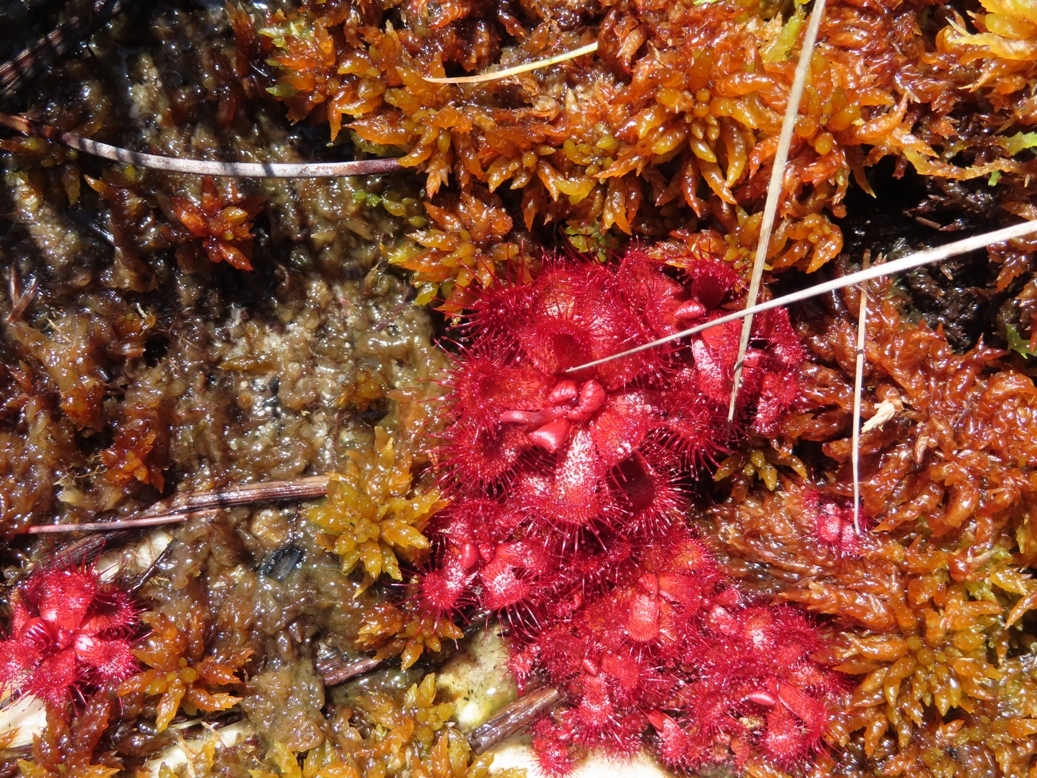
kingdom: Plantae
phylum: Tracheophyta
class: Magnoliopsida
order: Caryophyllales
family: Droseraceae
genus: Drosera
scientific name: Drosera slackii
